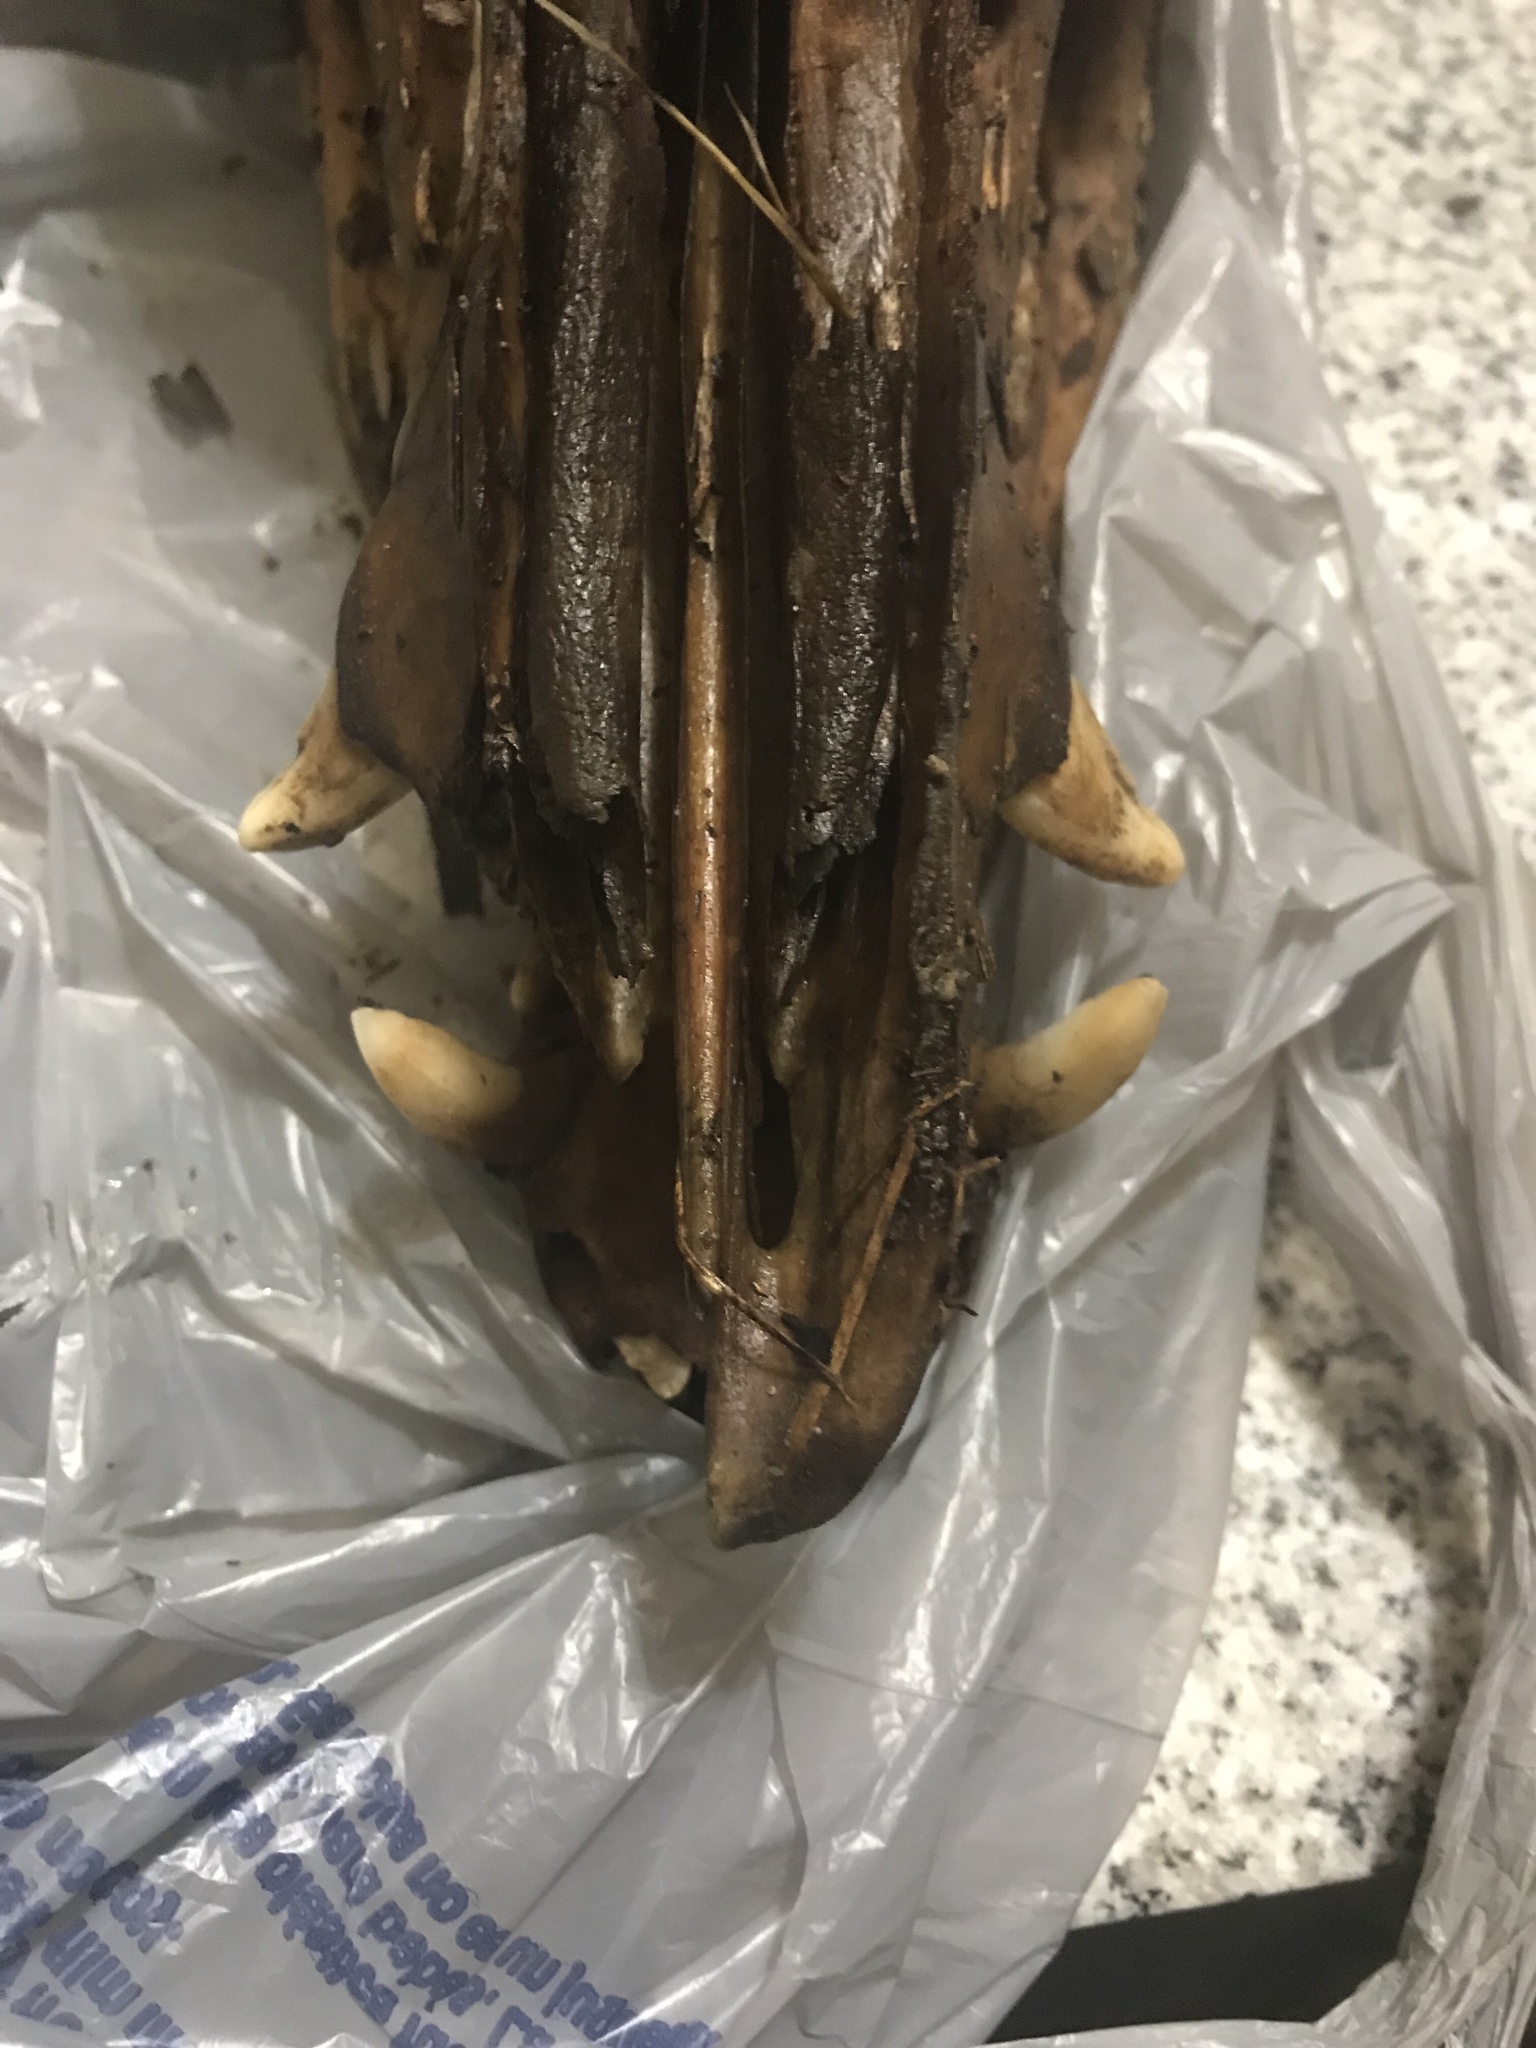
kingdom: Animalia
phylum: Chordata
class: Mammalia
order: Artiodactyla
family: Suidae
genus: Sus
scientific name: Sus scrofa
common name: Wild boar
